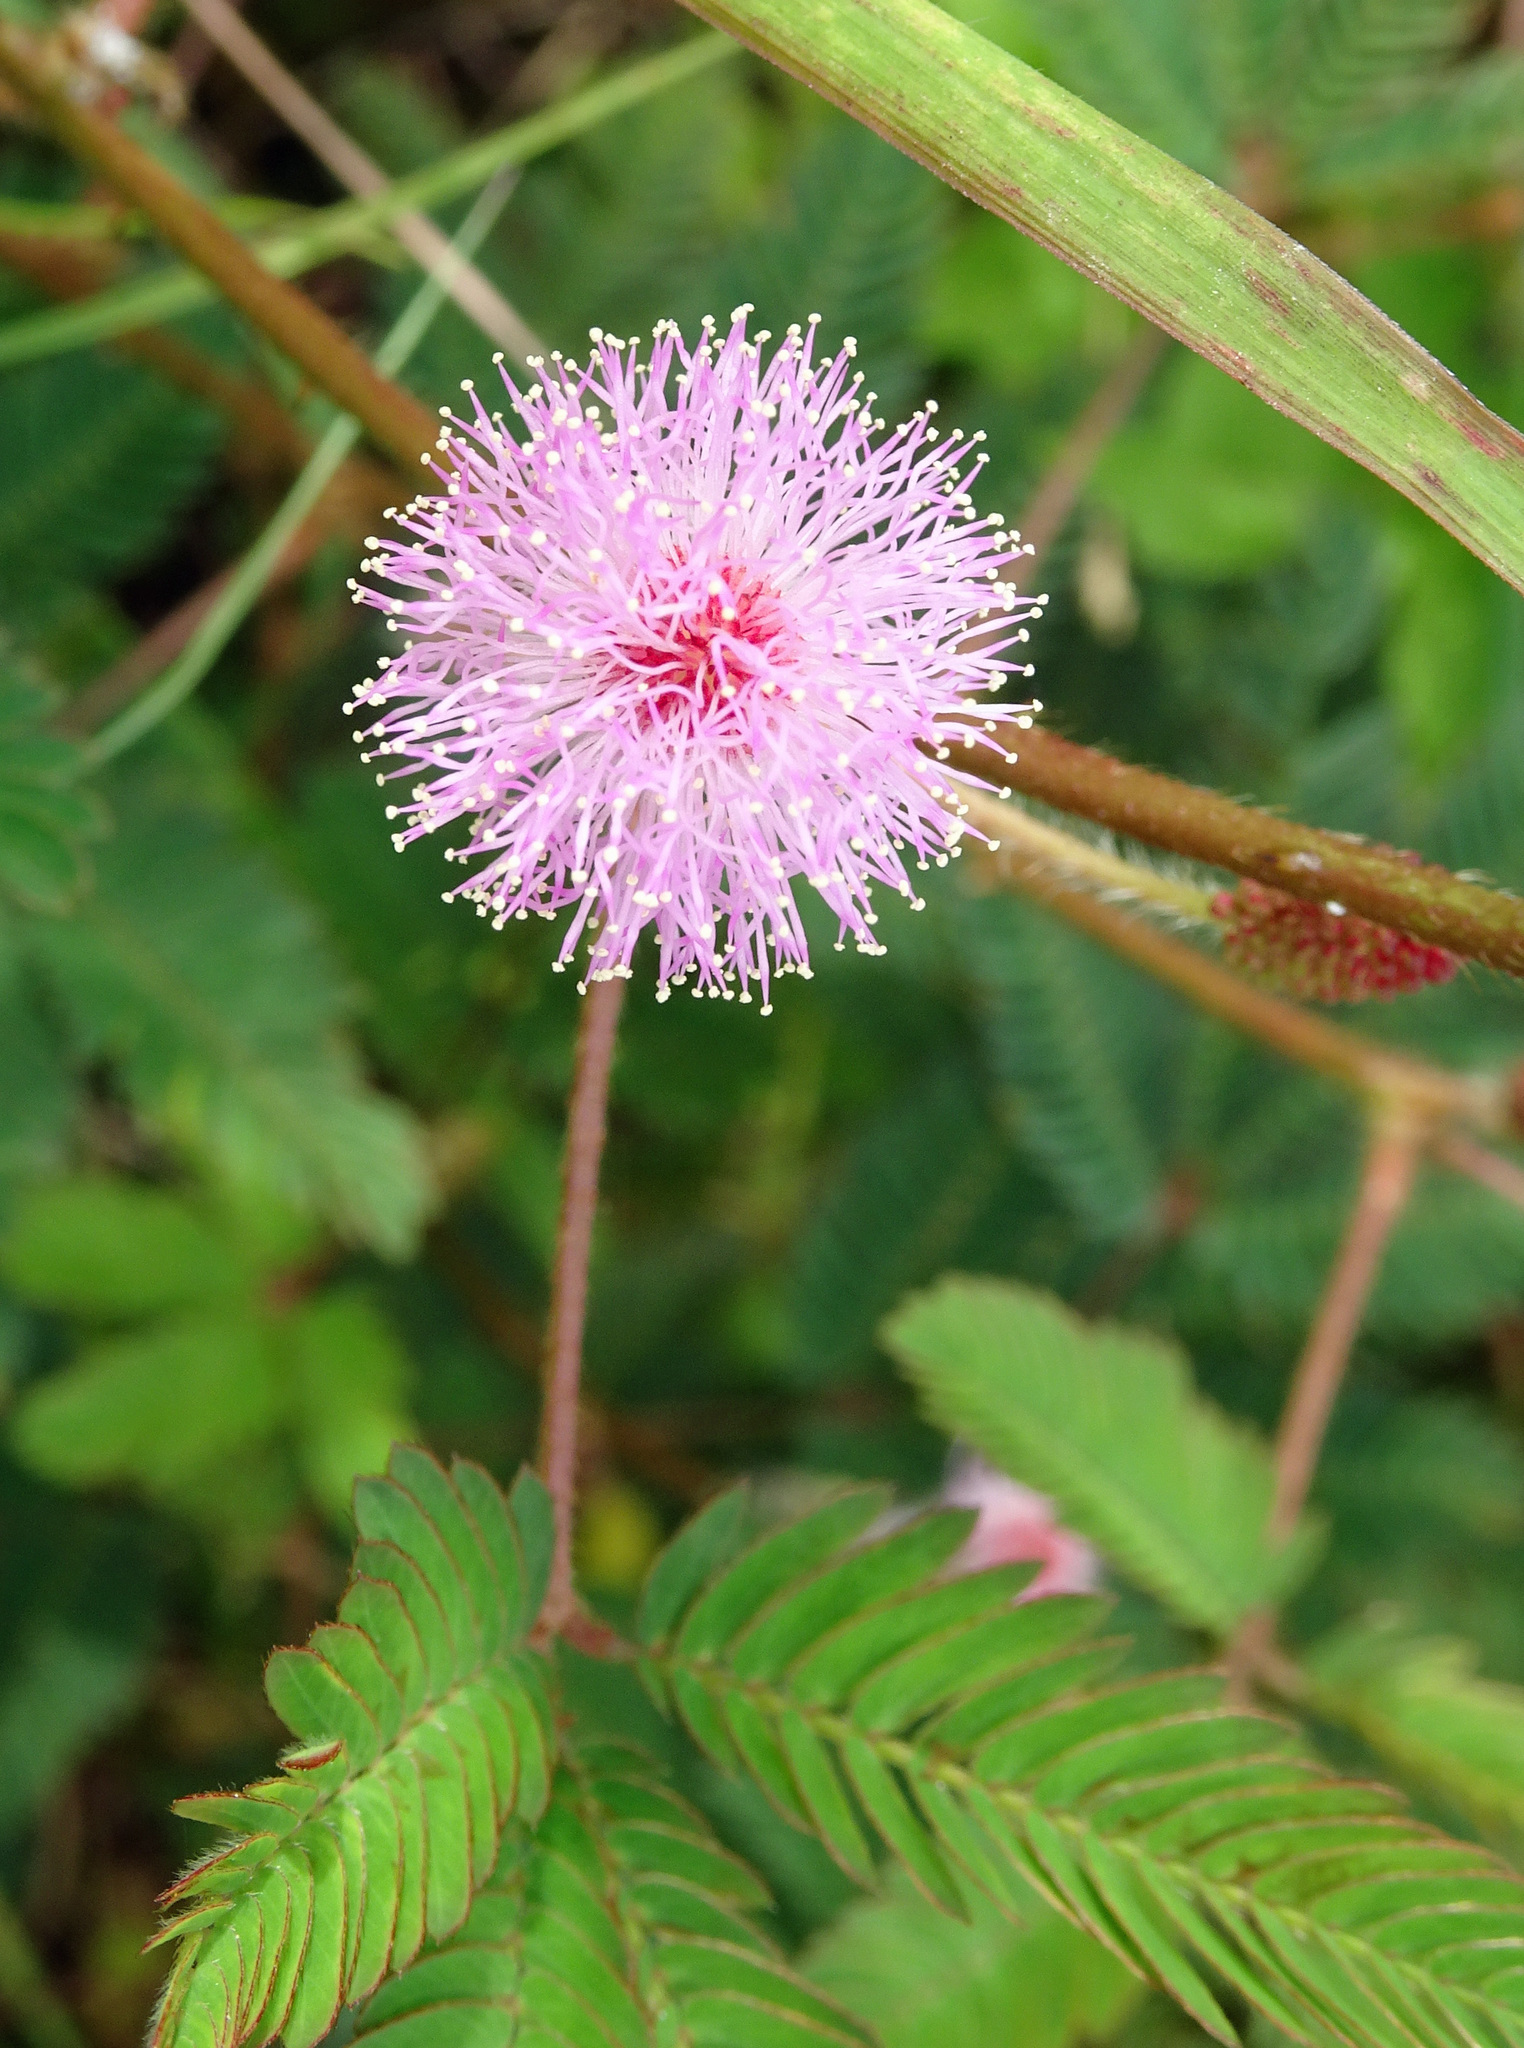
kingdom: Plantae
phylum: Tracheophyta
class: Magnoliopsida
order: Fabales
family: Fabaceae
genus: Mimosa
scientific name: Mimosa pudica
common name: Sensitive plant
